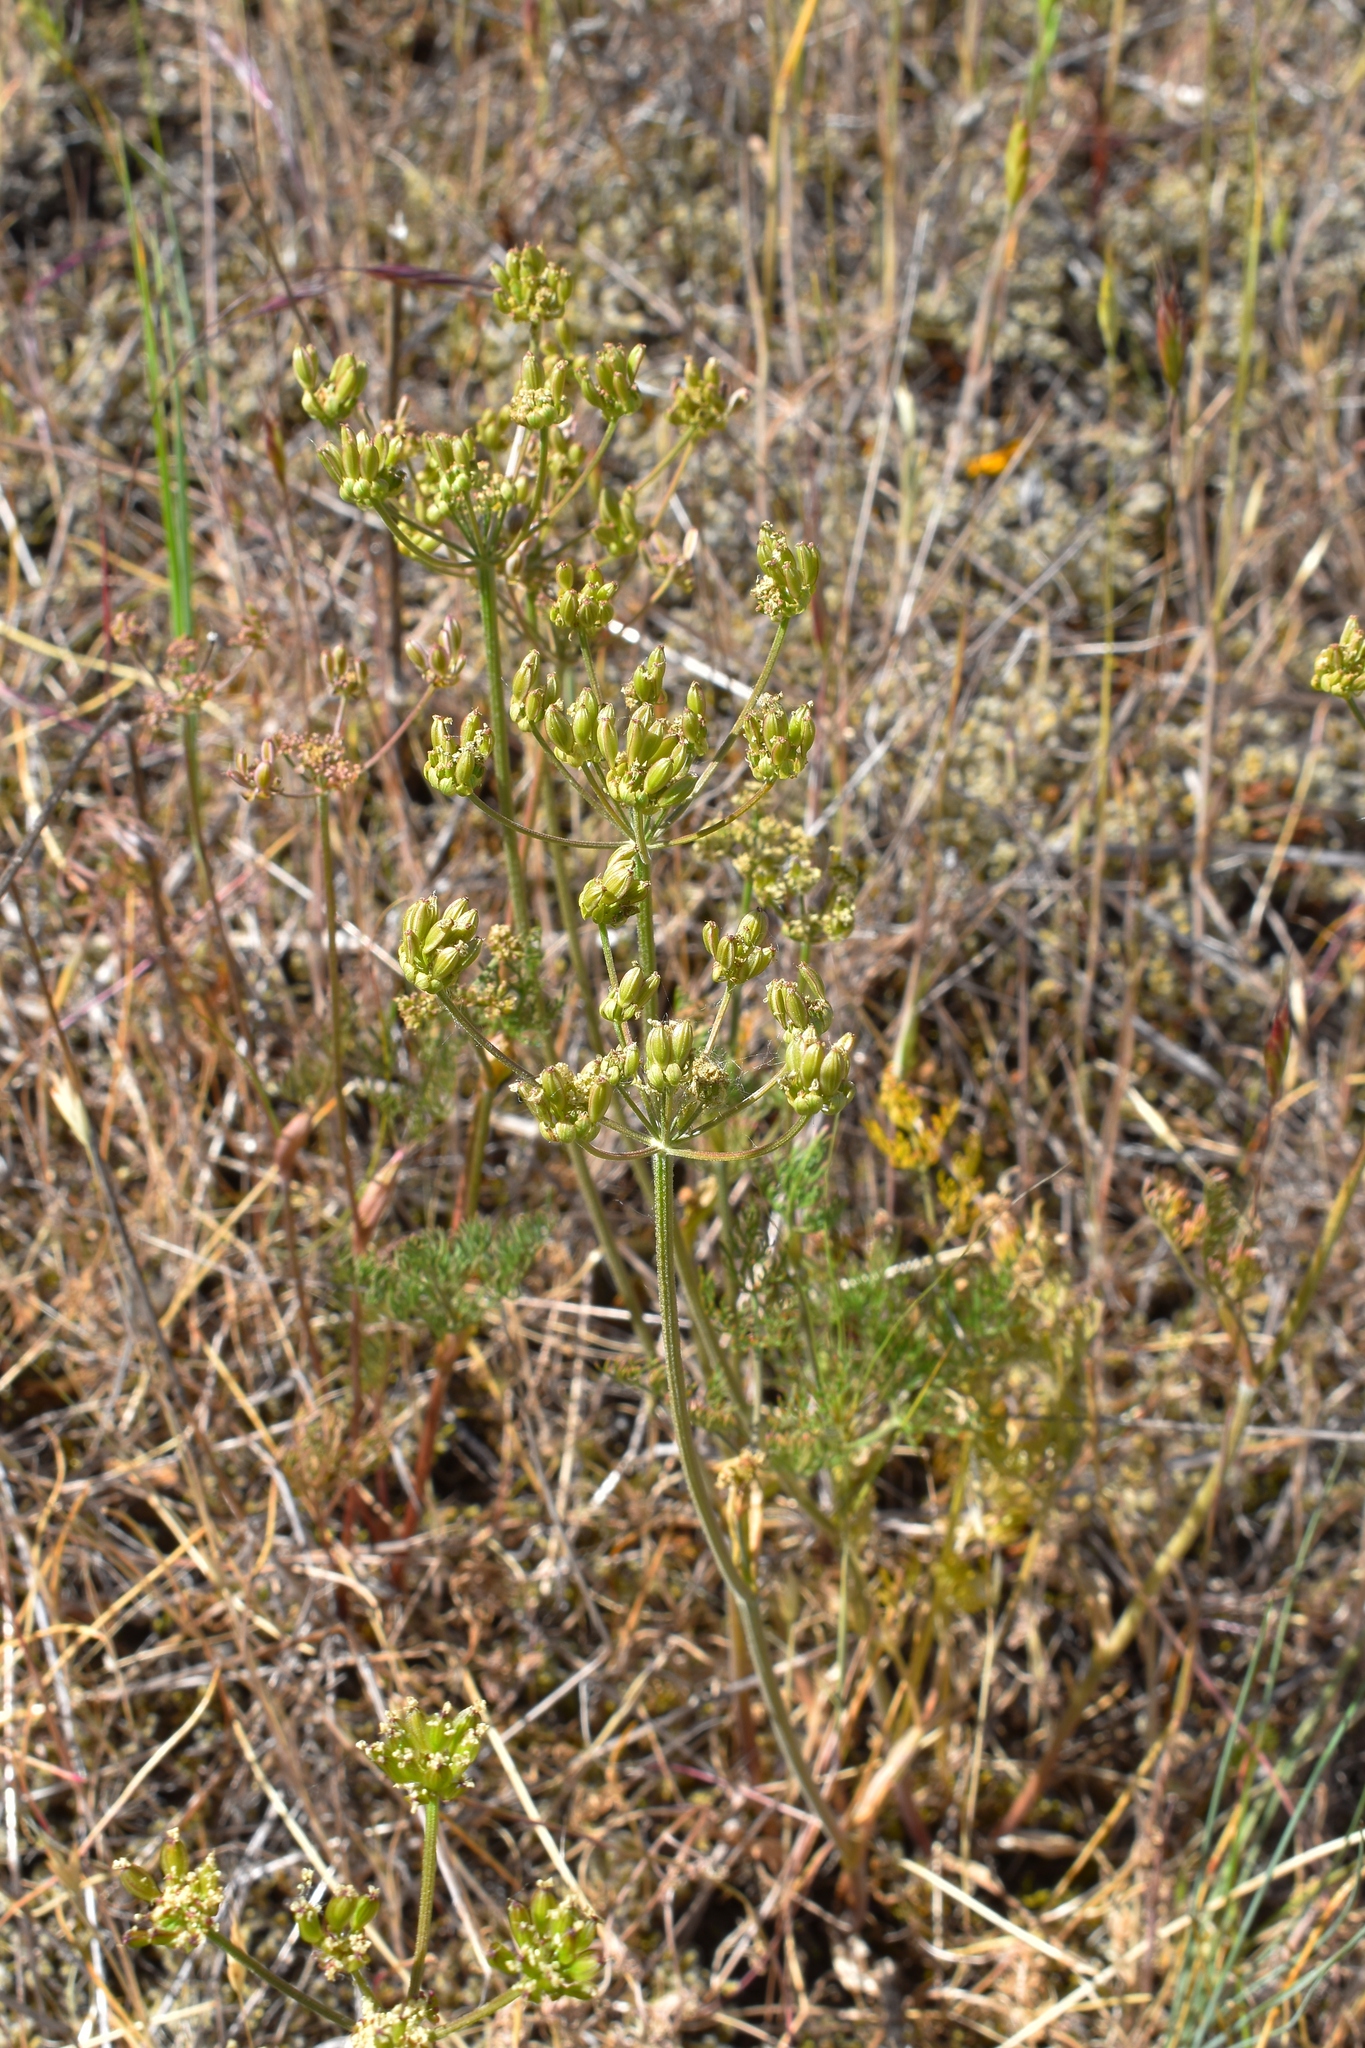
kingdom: Plantae
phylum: Tracheophyta
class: Magnoliopsida
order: Apiales
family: Apiaceae
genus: Lomatium
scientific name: Lomatium utriculatum
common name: Fine-leaf desert-parsley
